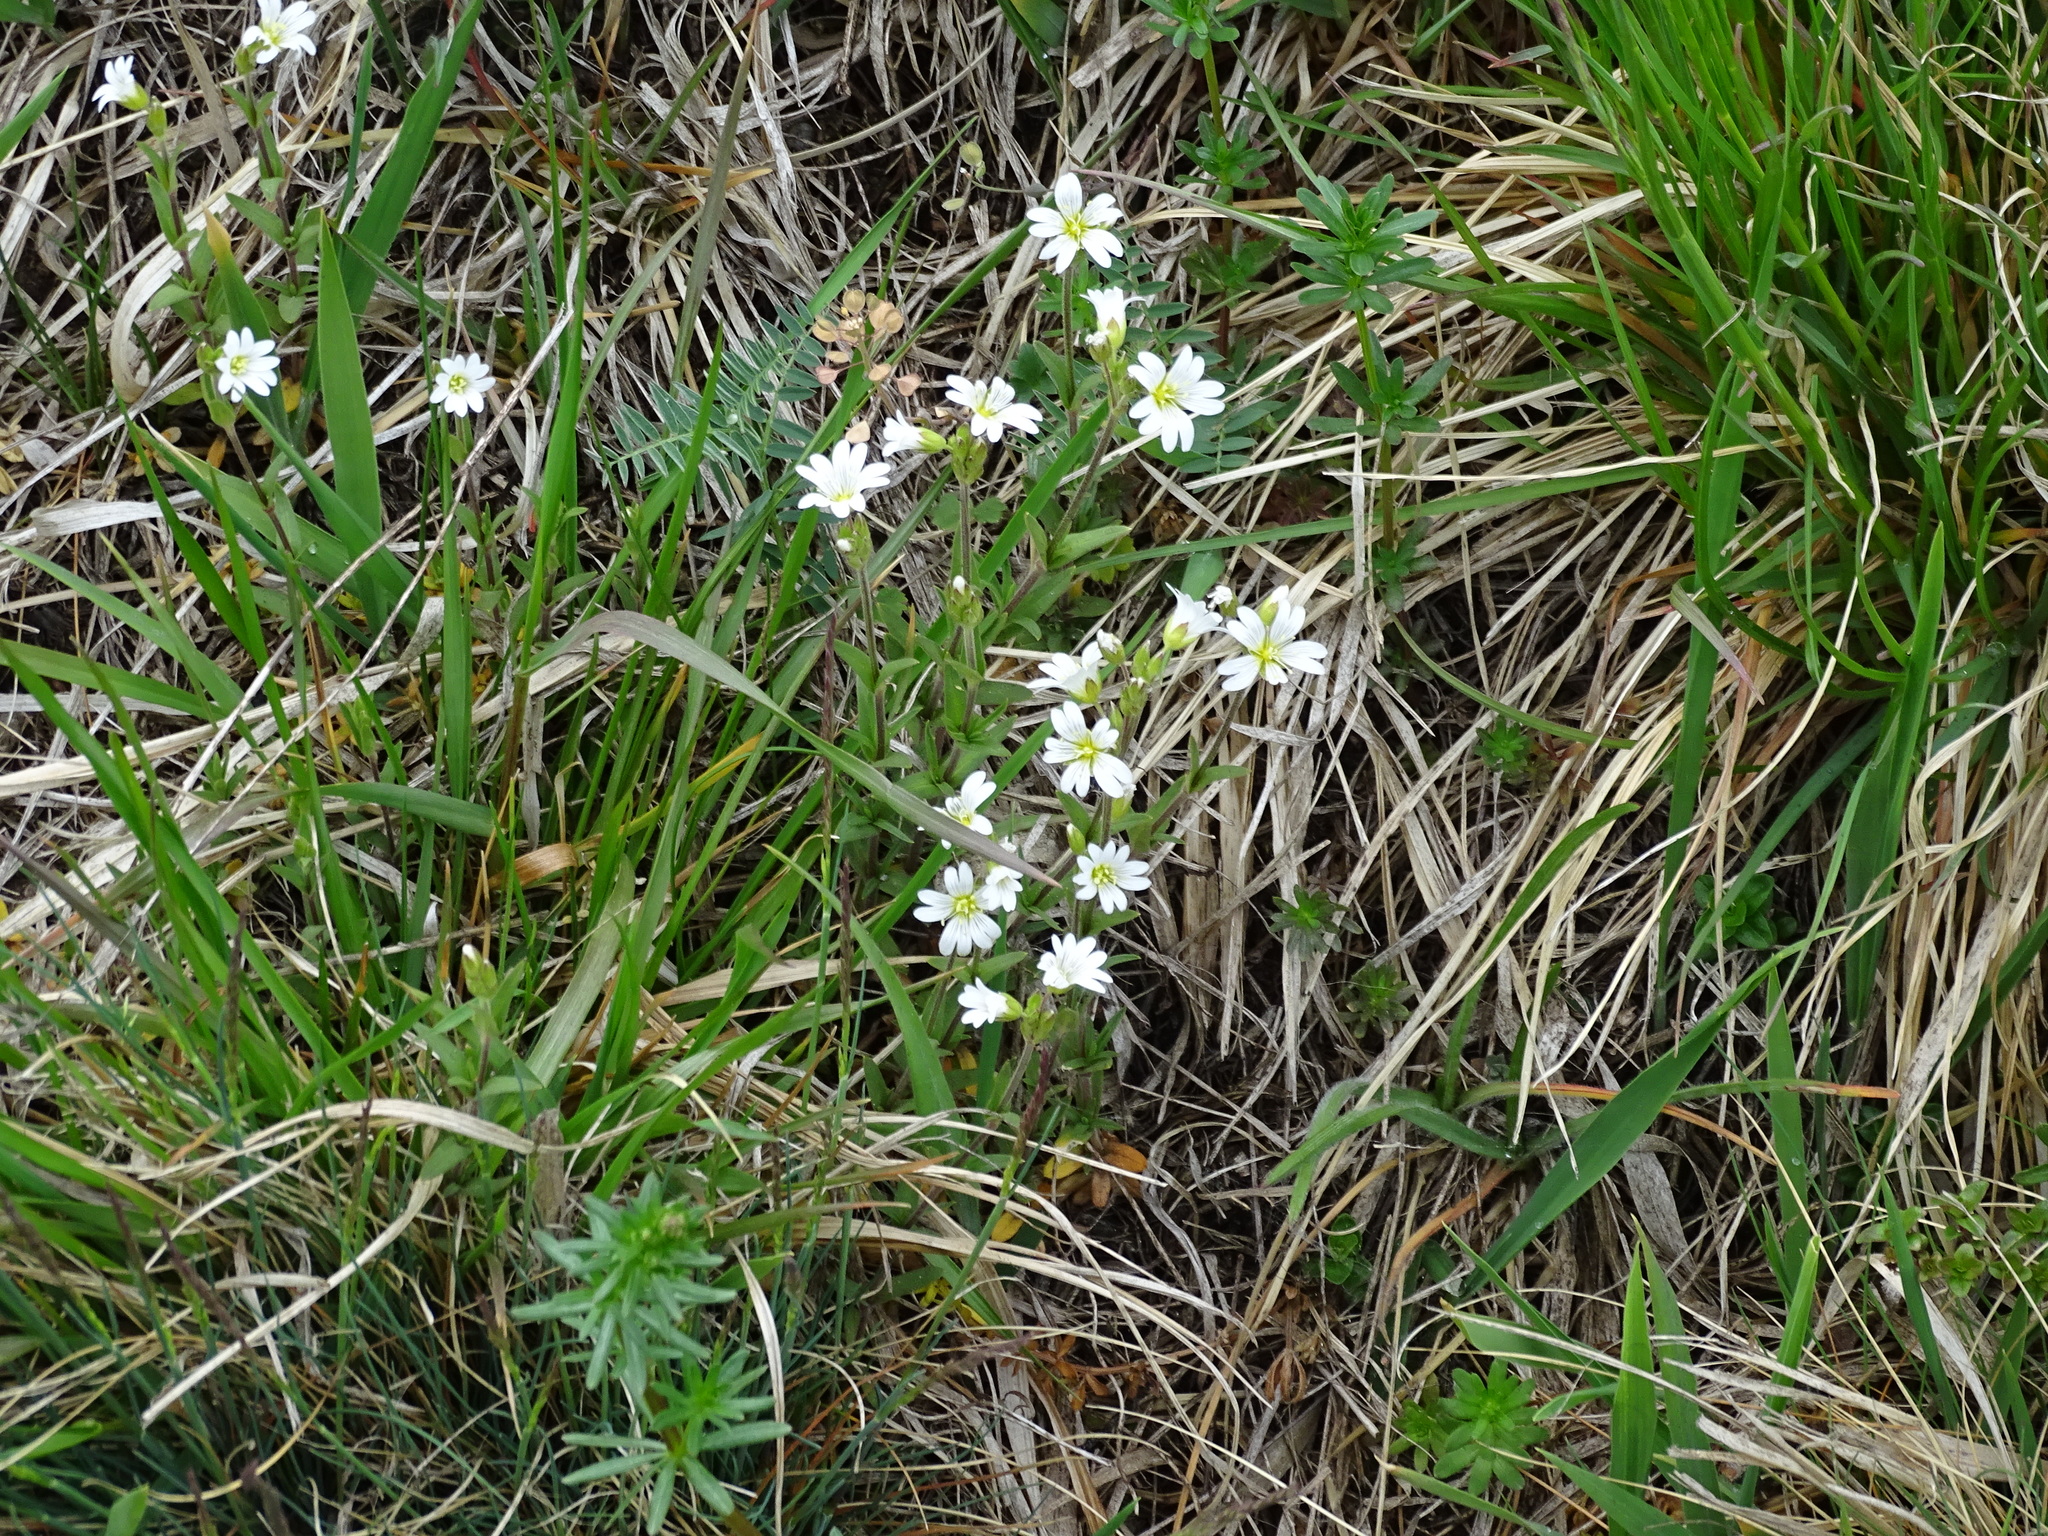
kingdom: Plantae
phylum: Tracheophyta
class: Magnoliopsida
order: Caryophyllales
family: Caryophyllaceae
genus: Cerastium
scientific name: Cerastium arvense
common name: Field mouse-ear
